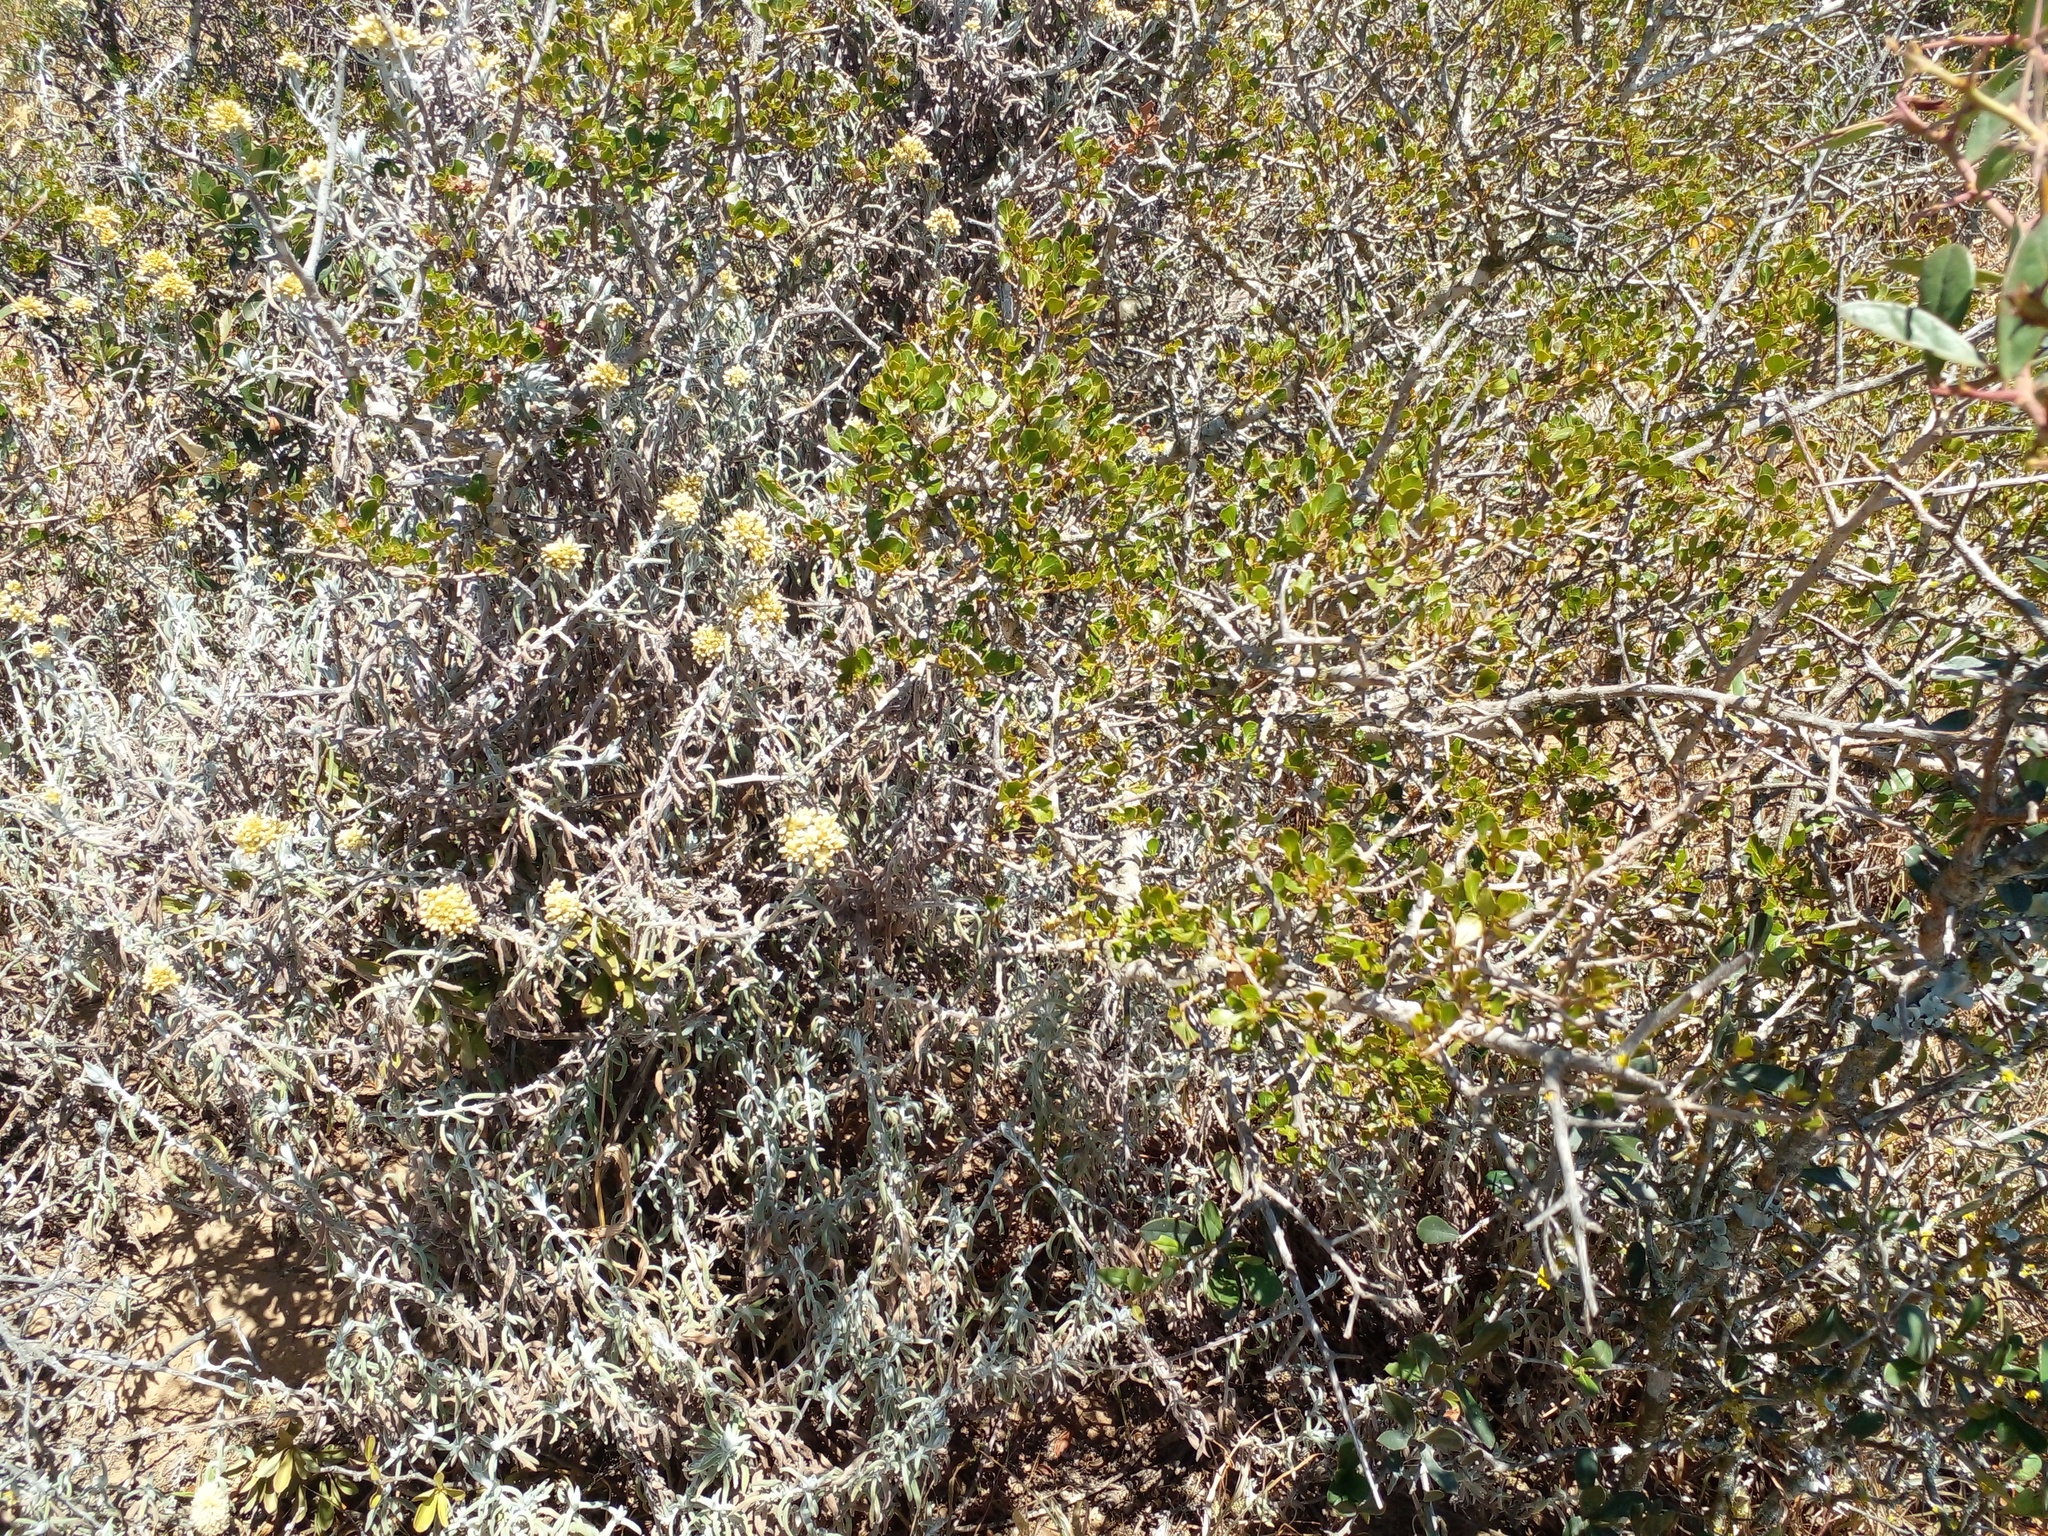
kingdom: Plantae
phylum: Tracheophyta
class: Magnoliopsida
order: Sapindales
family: Anacardiaceae
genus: Searsia
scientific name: Searsia glauca
